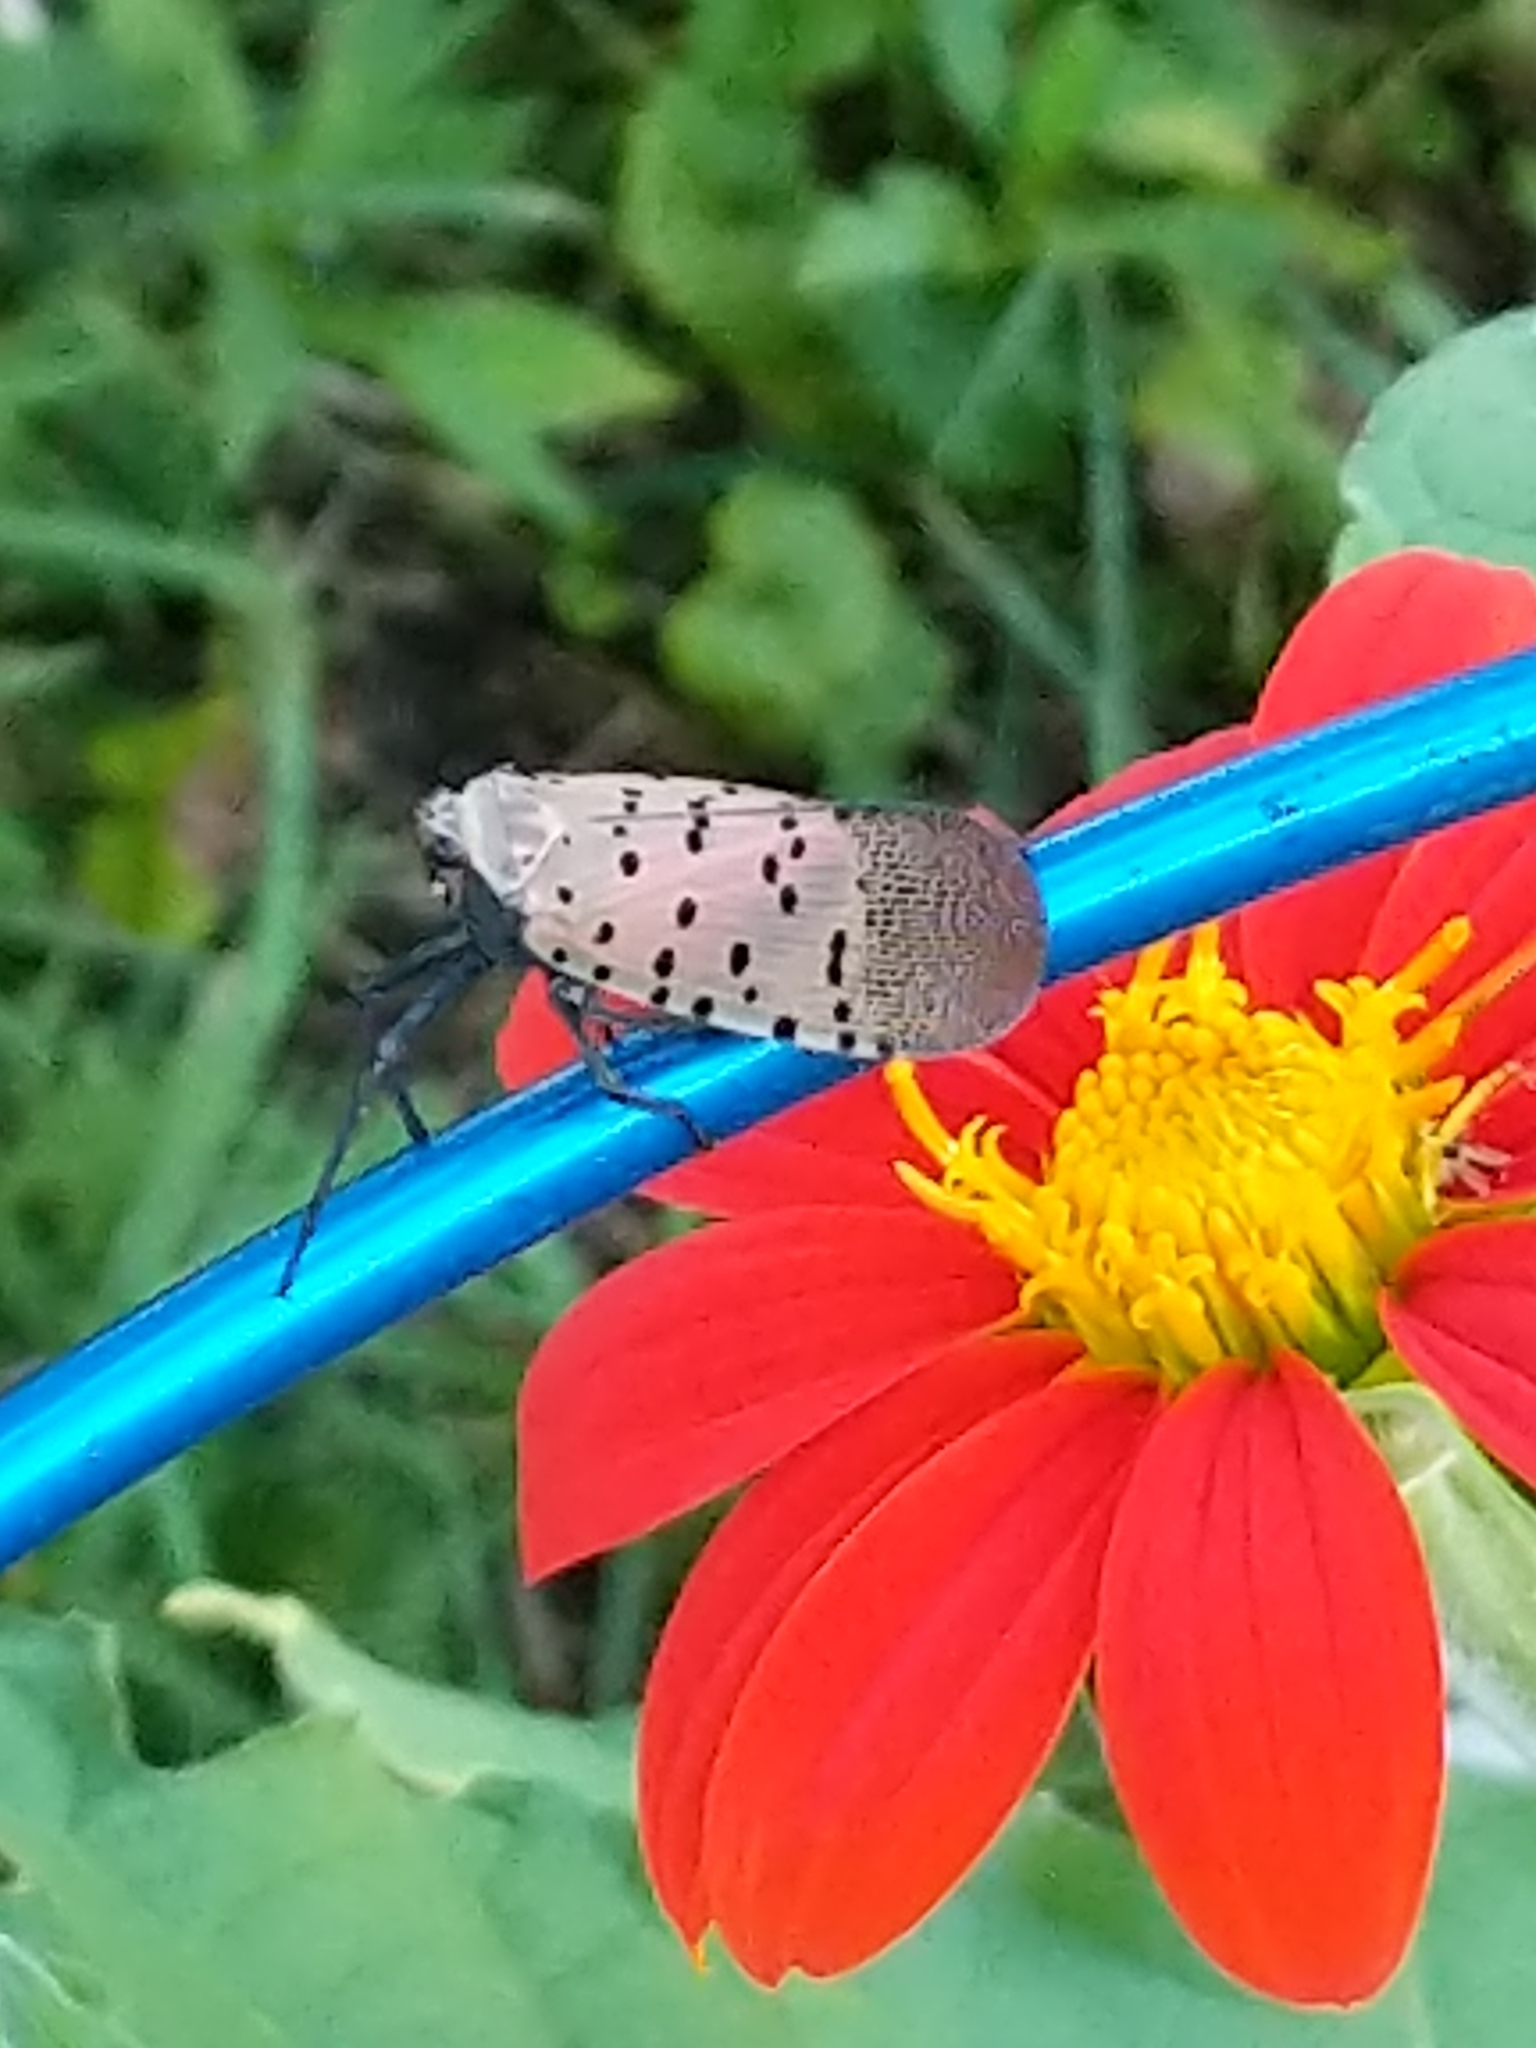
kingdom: Animalia
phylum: Arthropoda
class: Insecta
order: Hemiptera
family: Fulgoridae
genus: Lycorma
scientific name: Lycorma delicatula
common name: Spotted lanternfly
